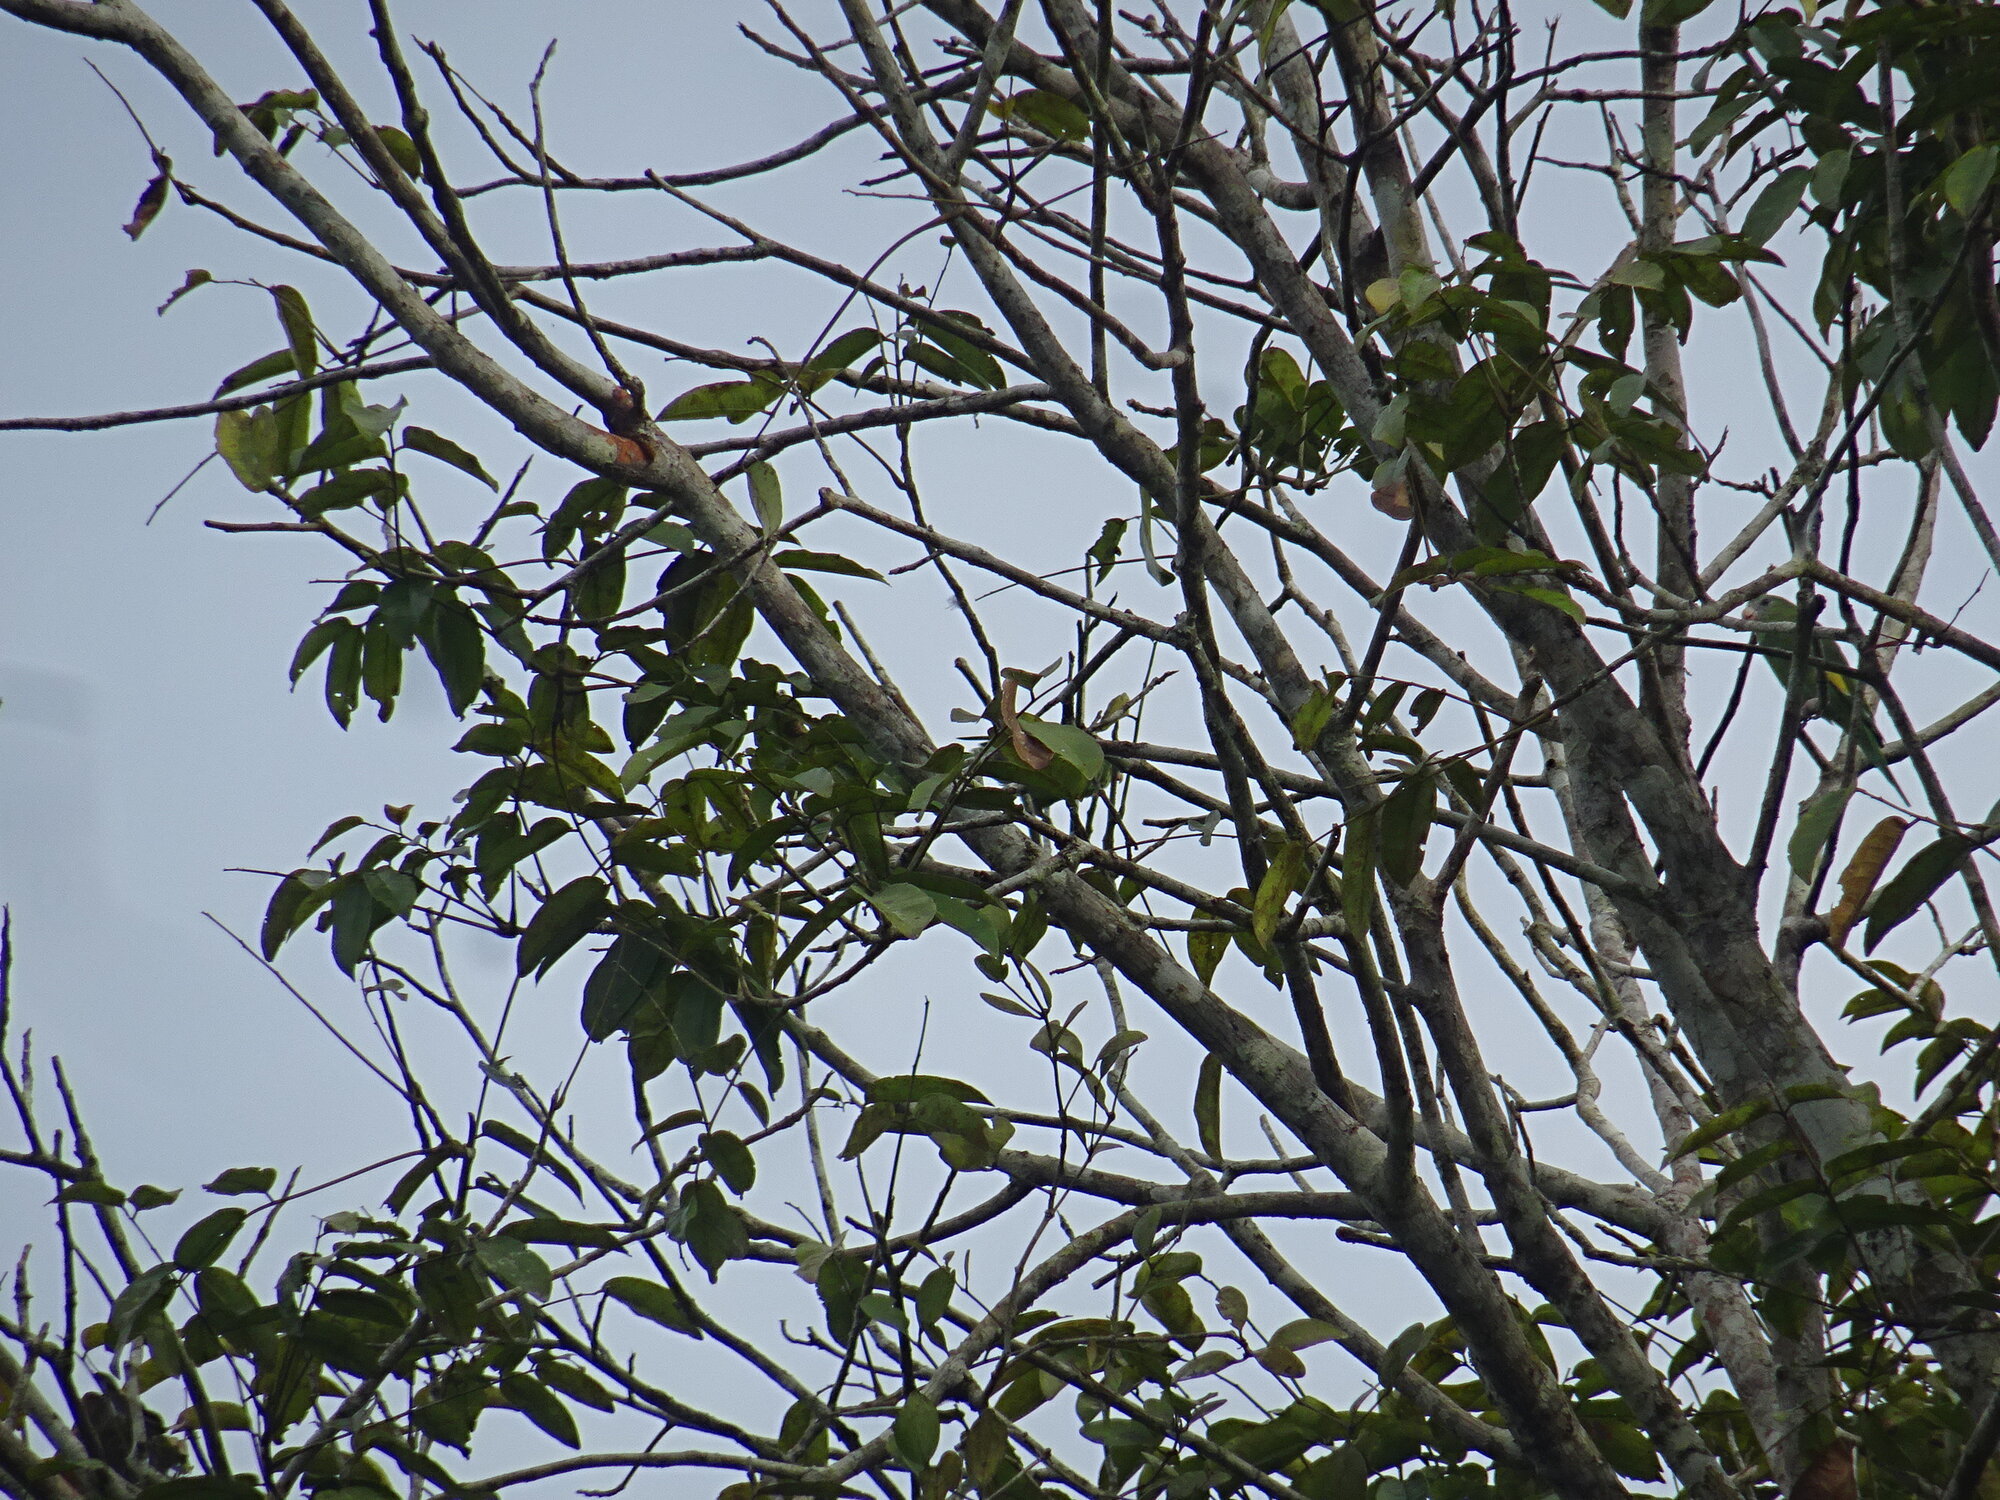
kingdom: Animalia
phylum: Chordata
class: Aves
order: Psittaciformes
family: Psittacidae
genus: Brotogeris
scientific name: Brotogeris versicolurus
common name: White-winged parakeet
